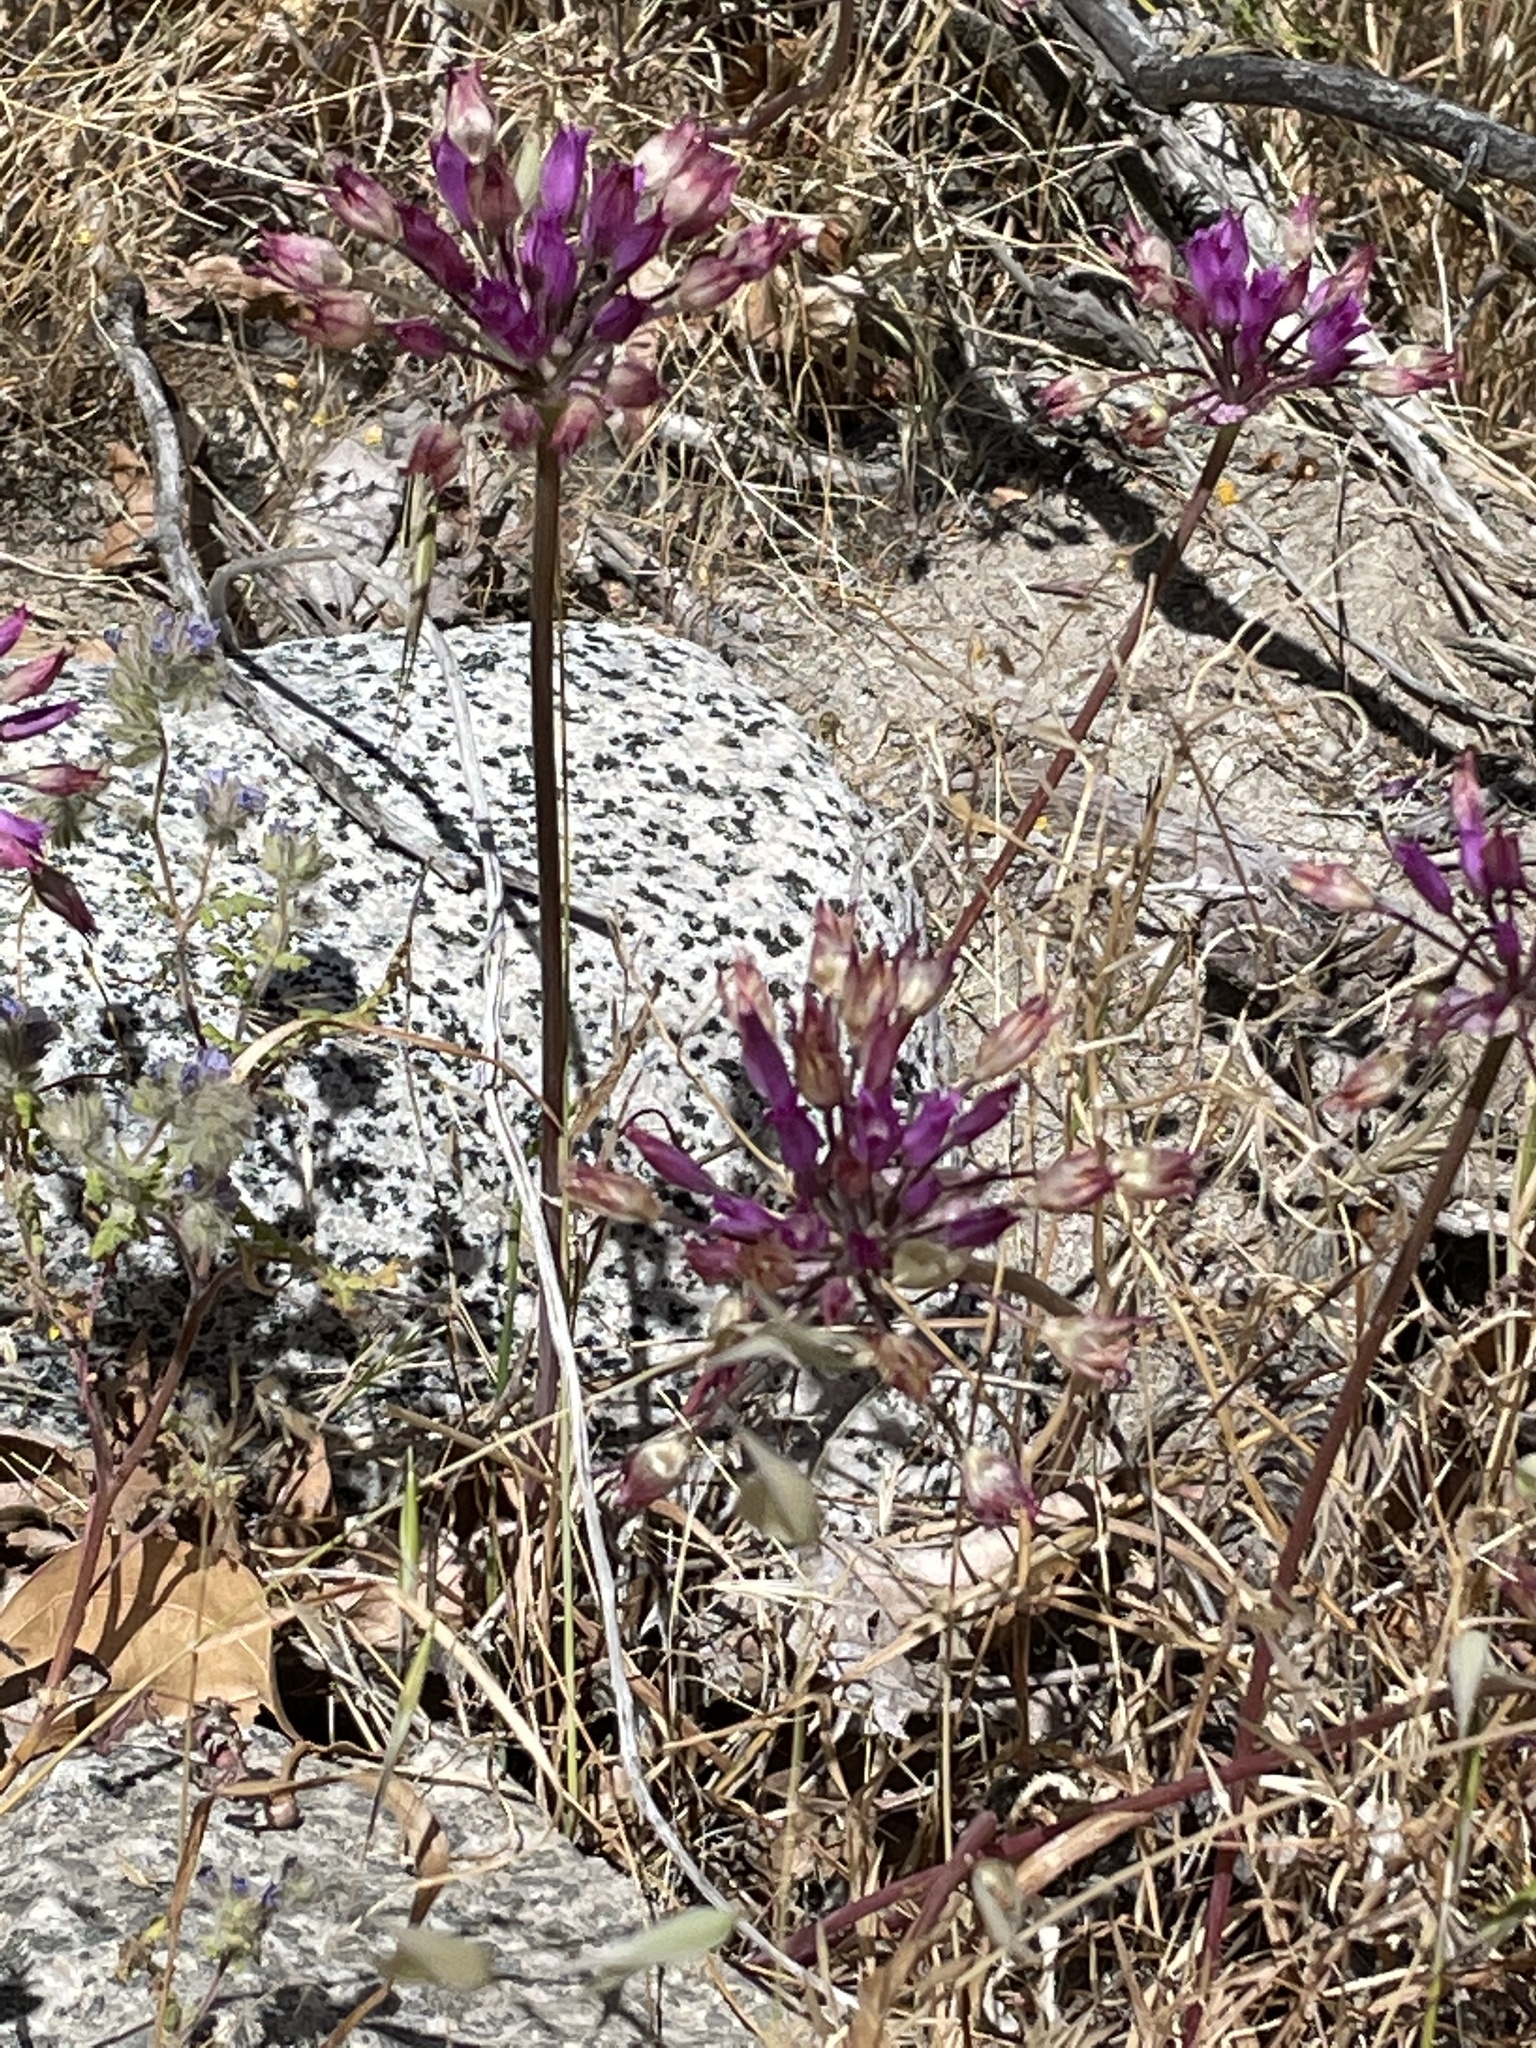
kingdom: Plantae
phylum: Tracheophyta
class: Liliopsida
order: Asparagales
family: Amaryllidaceae
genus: Allium
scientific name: Allium peninsulare
